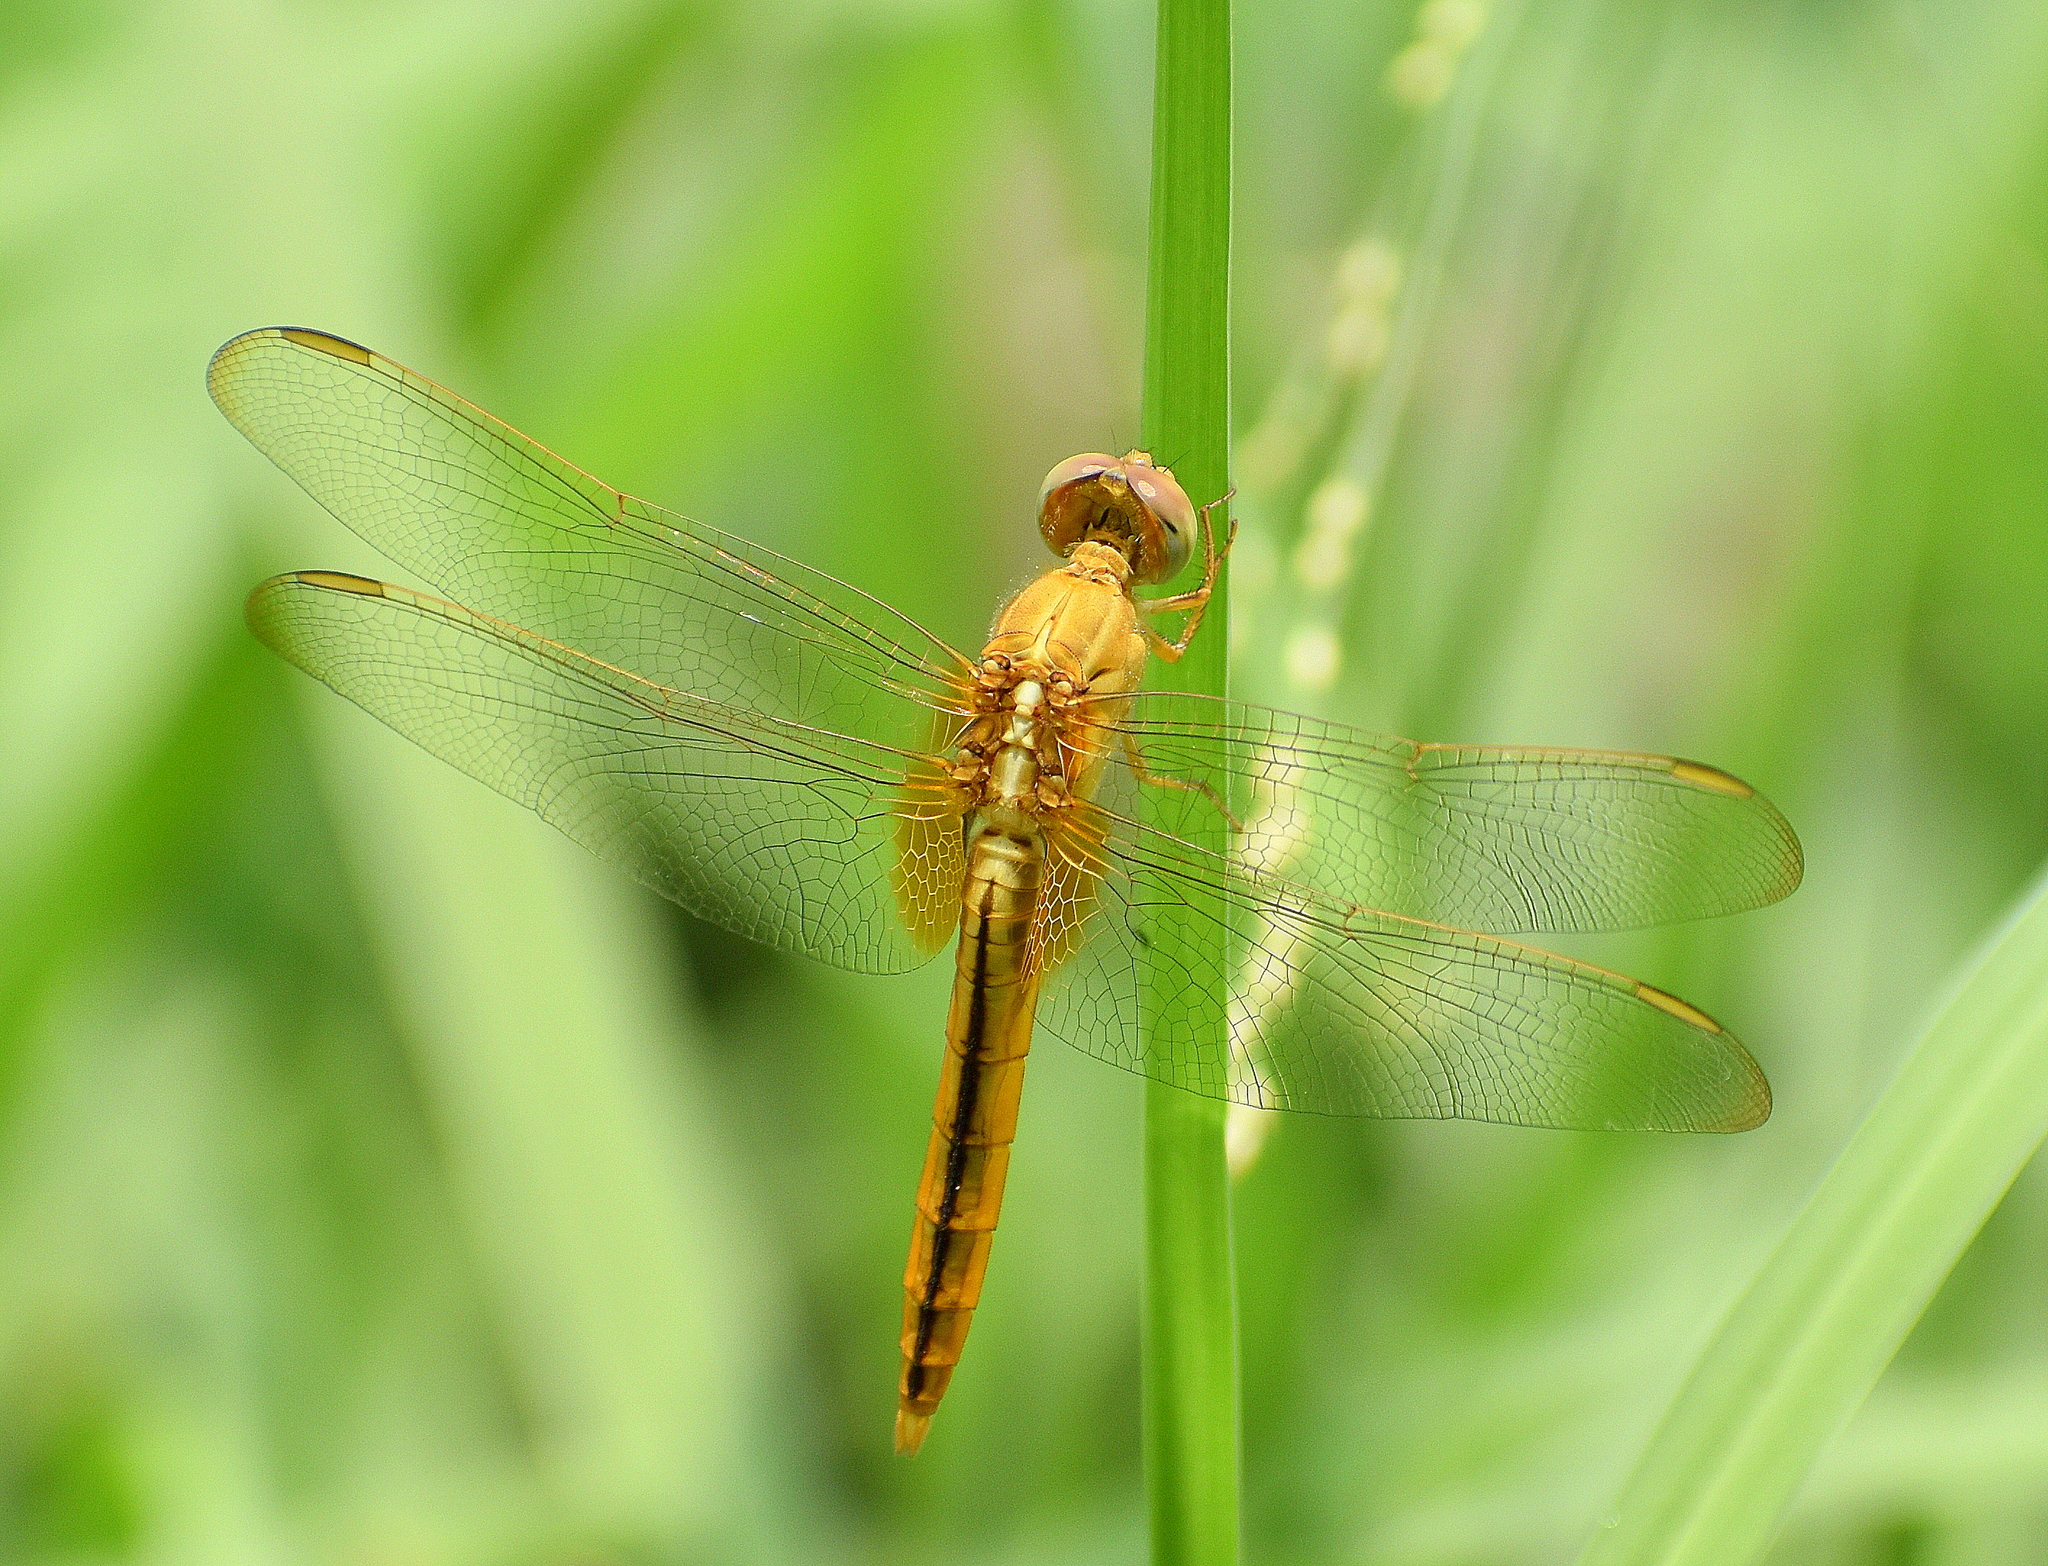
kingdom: Animalia
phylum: Arthropoda
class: Insecta
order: Odonata
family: Libellulidae
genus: Crocothemis
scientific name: Crocothemis servilia
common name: Scarlet skimmer
